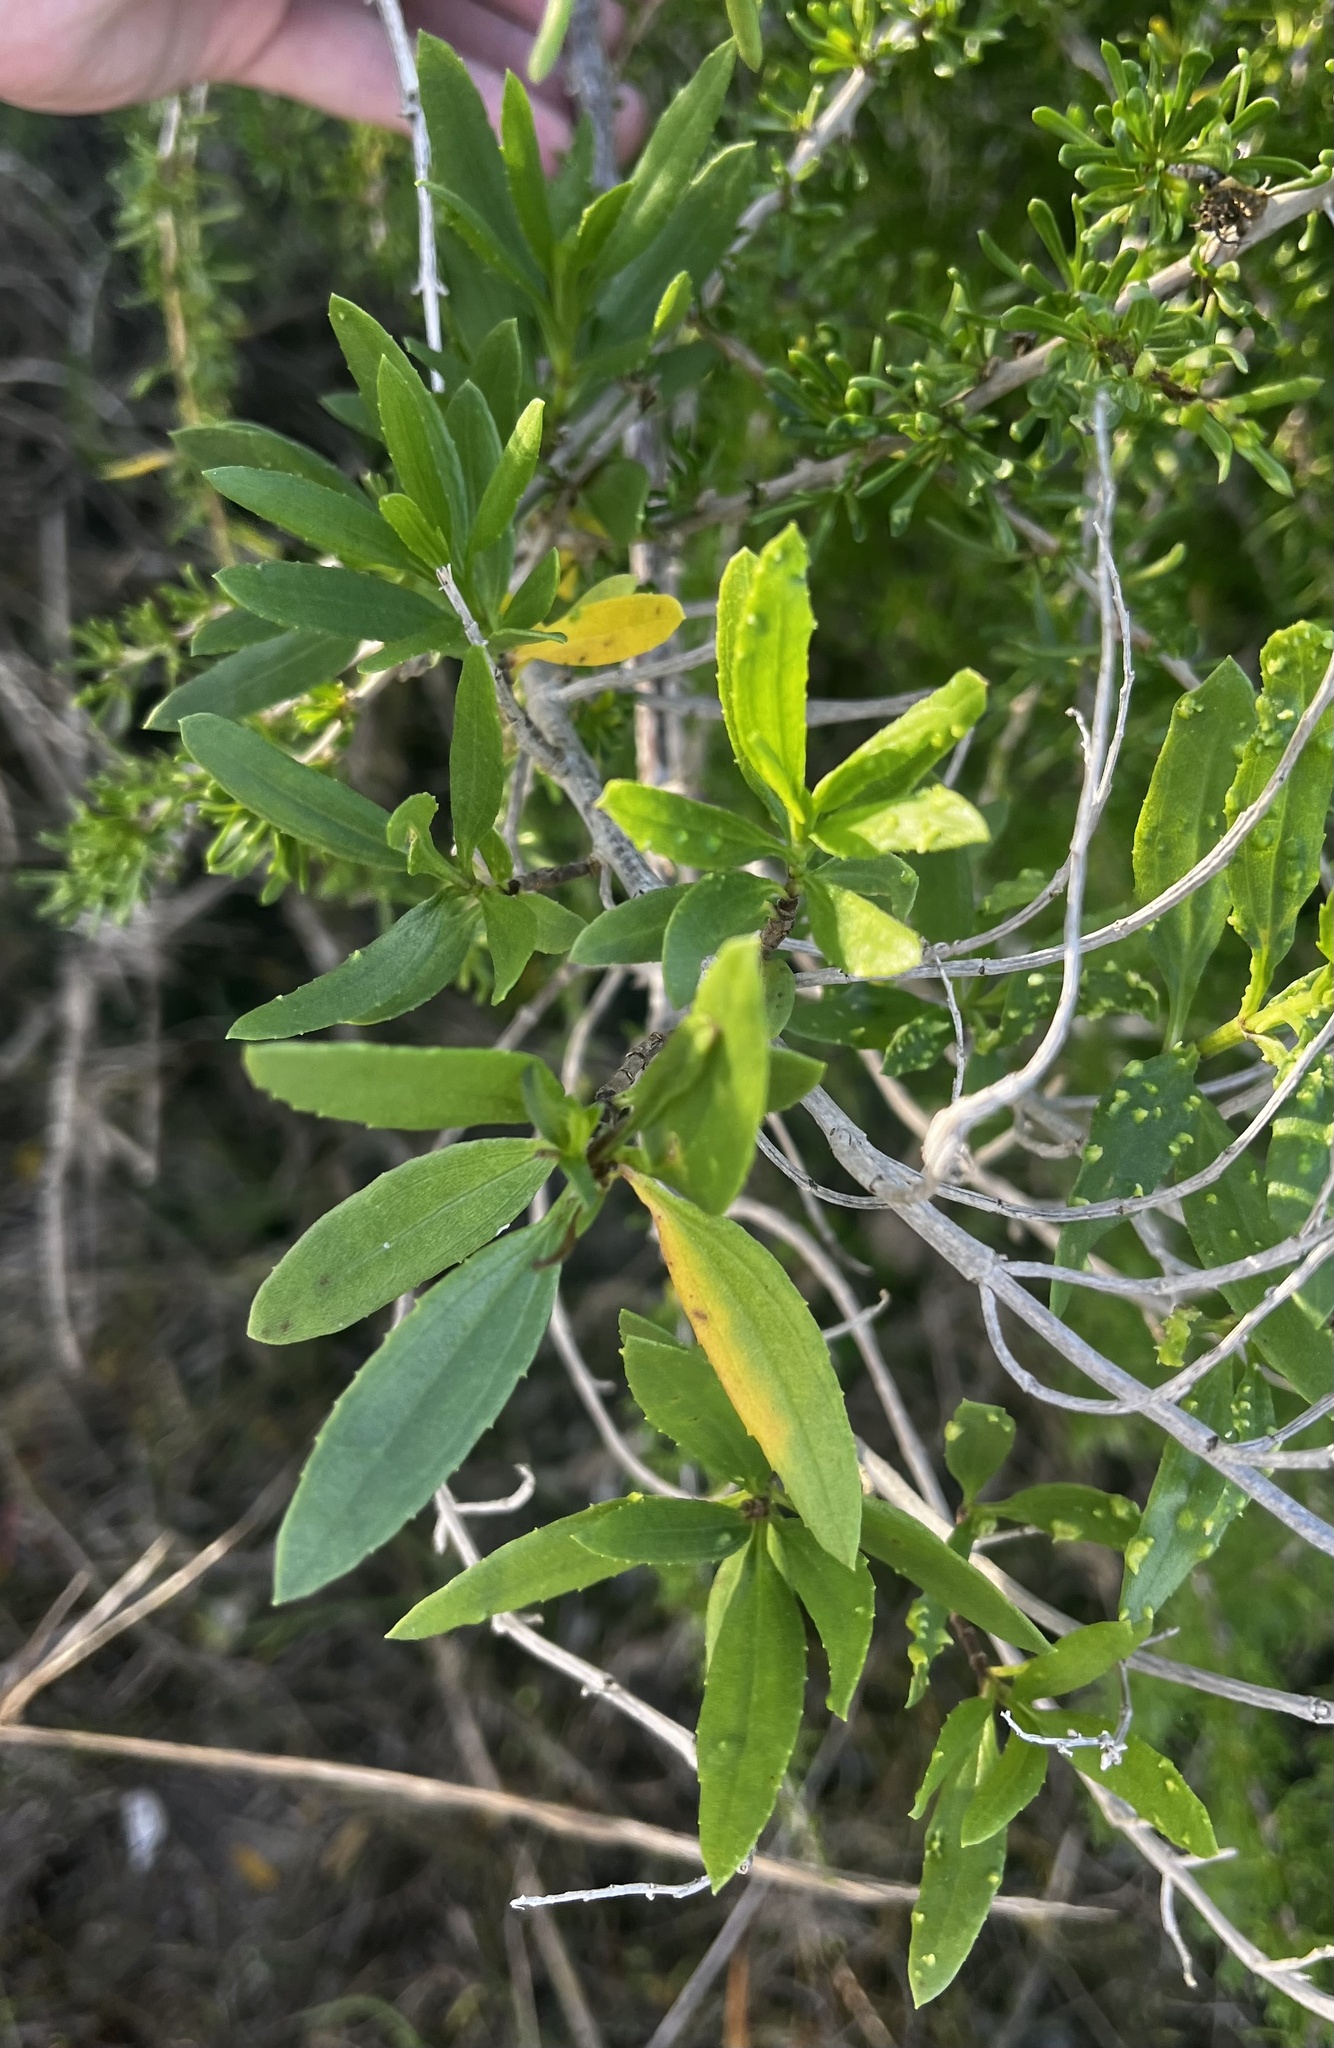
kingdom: Plantae
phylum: Tracheophyta
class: Magnoliopsida
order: Asterales
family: Asteraceae
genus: Iva
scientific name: Iva frutescens
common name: Big-leaved marsh-elder
